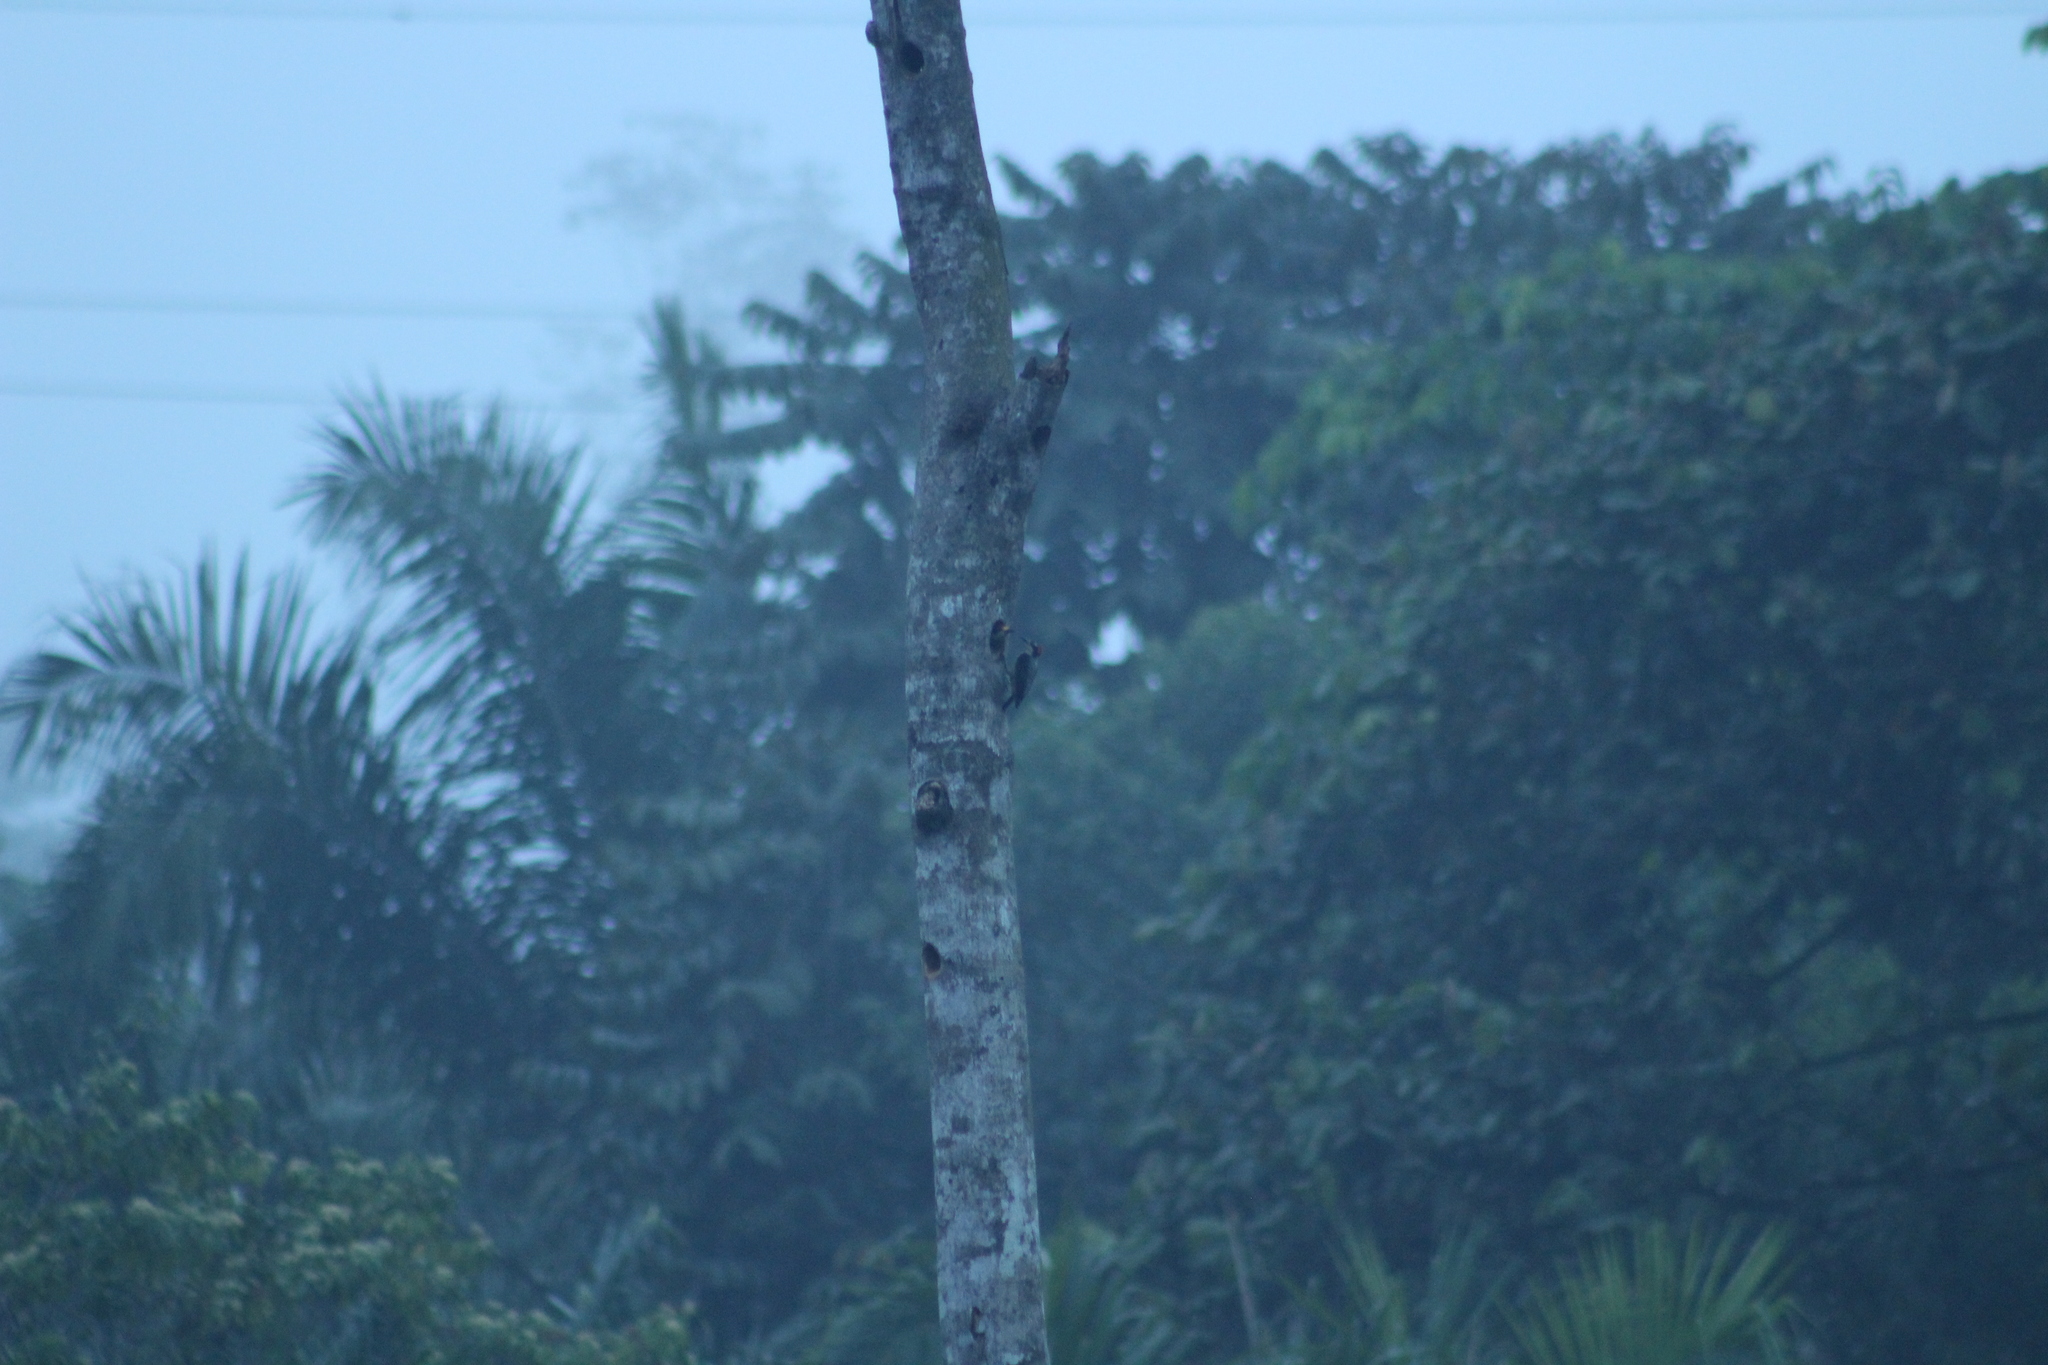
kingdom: Animalia
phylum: Chordata
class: Aves
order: Piciformes
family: Picidae
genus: Melanerpes
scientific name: Melanerpes pucherani
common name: Black-cheeked woodpecker
